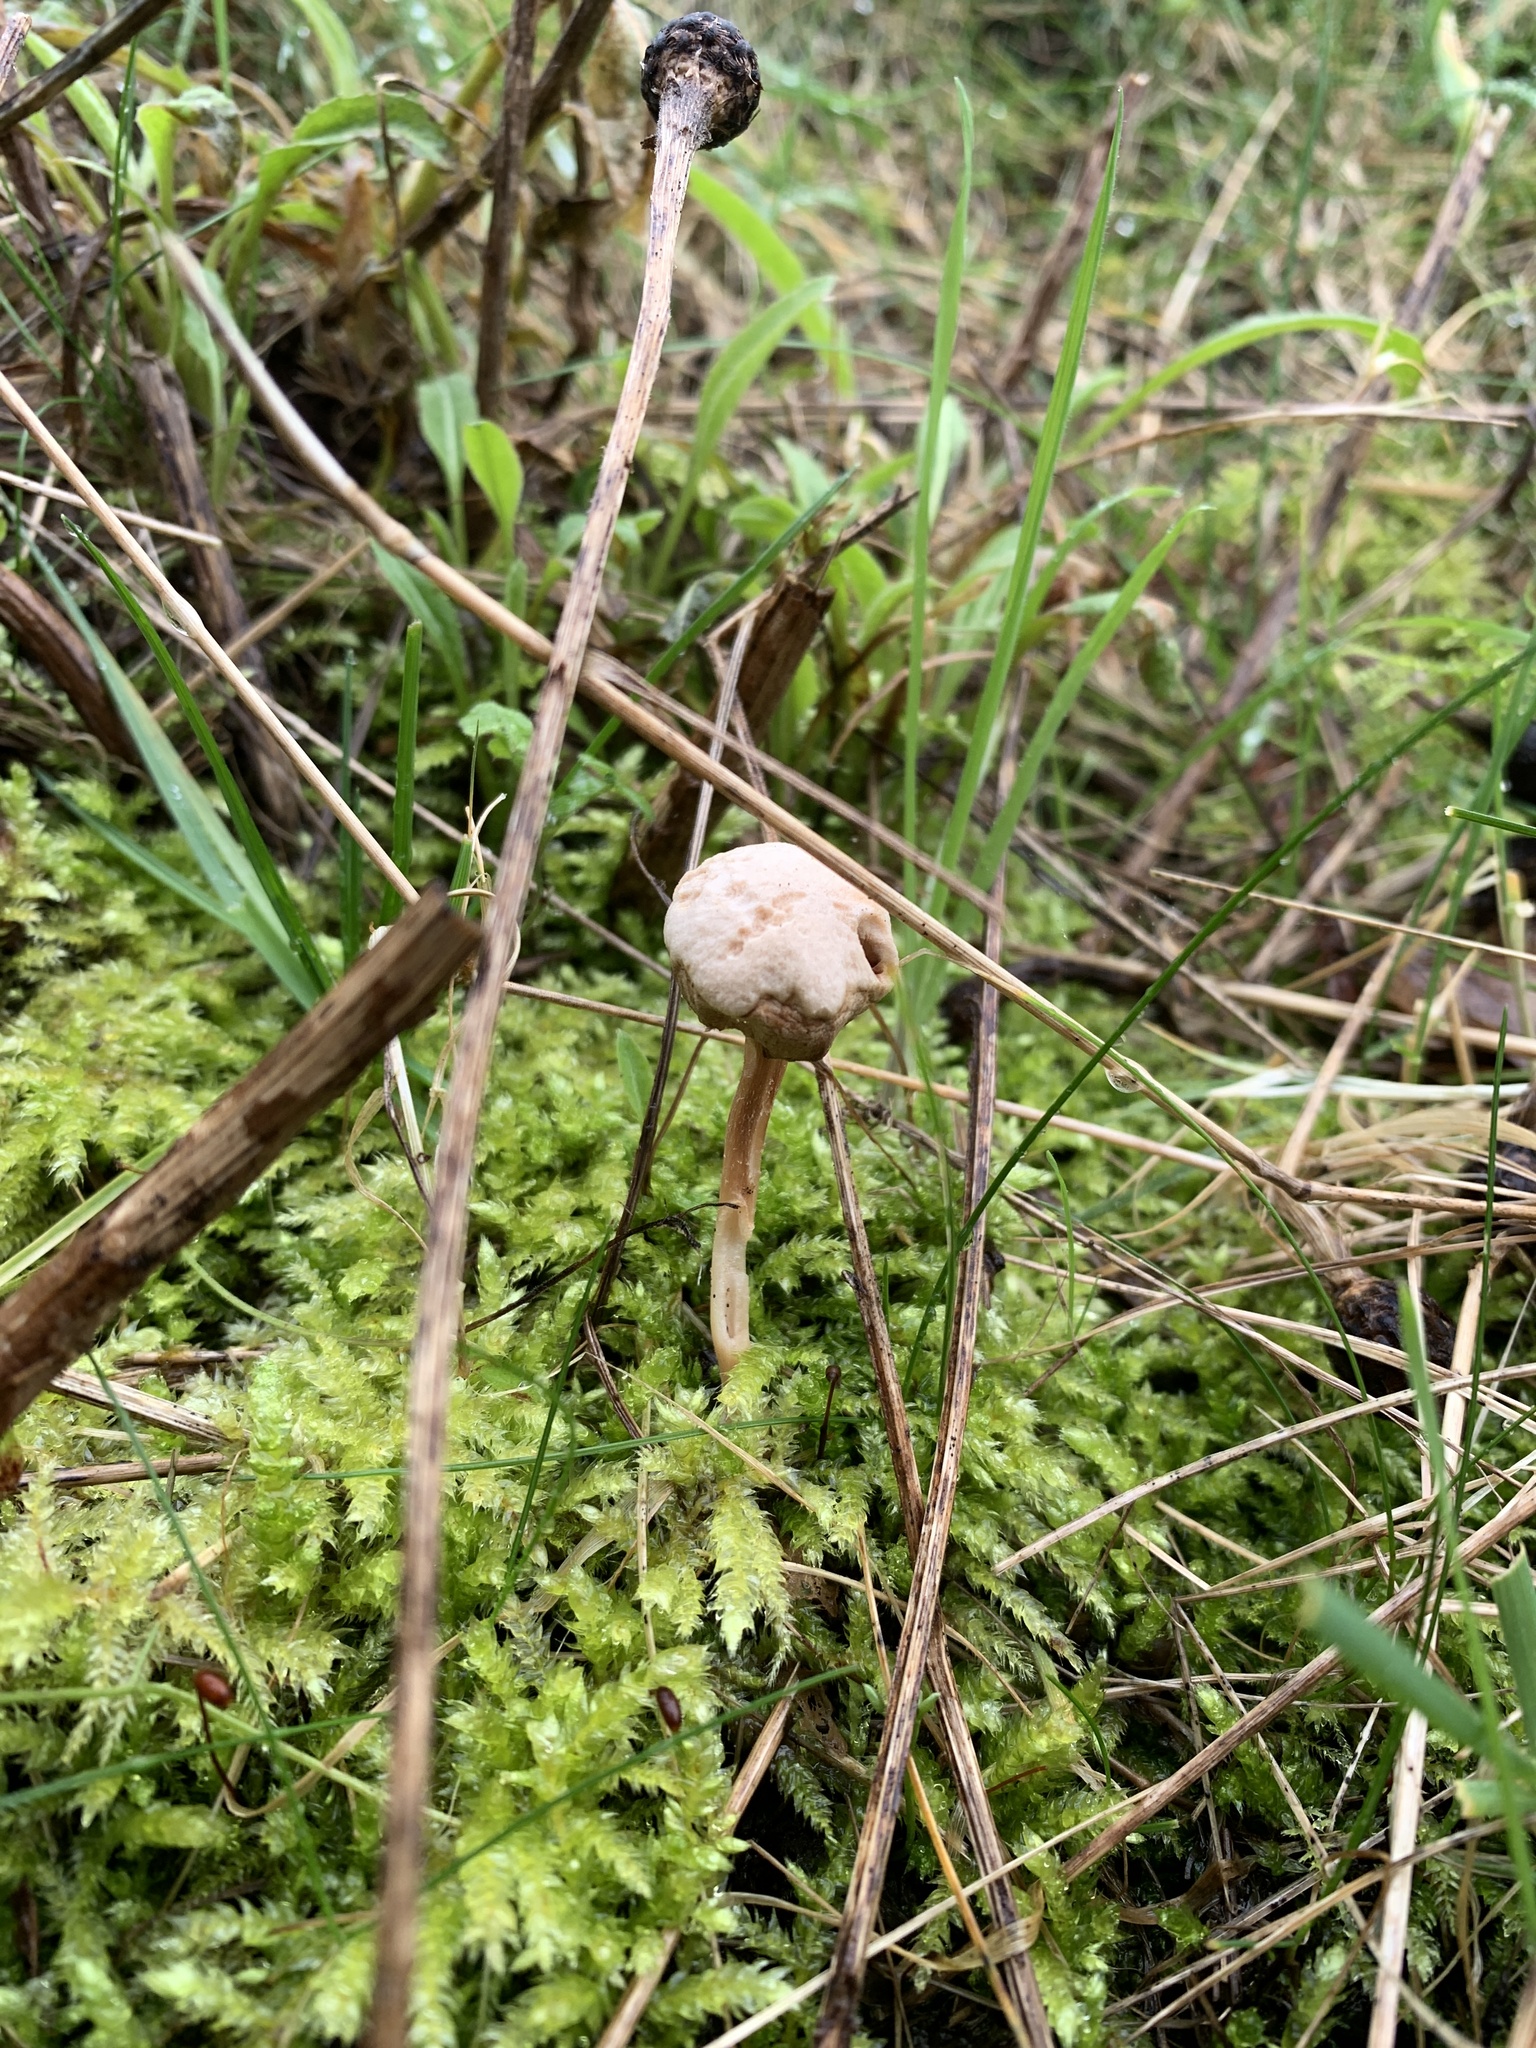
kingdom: Fungi
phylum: Basidiomycota
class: Agaricomycetes
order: Agaricales
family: Agaricaceae
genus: Tulostoma
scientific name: Tulostoma brumale
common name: Winter stalk puffball
